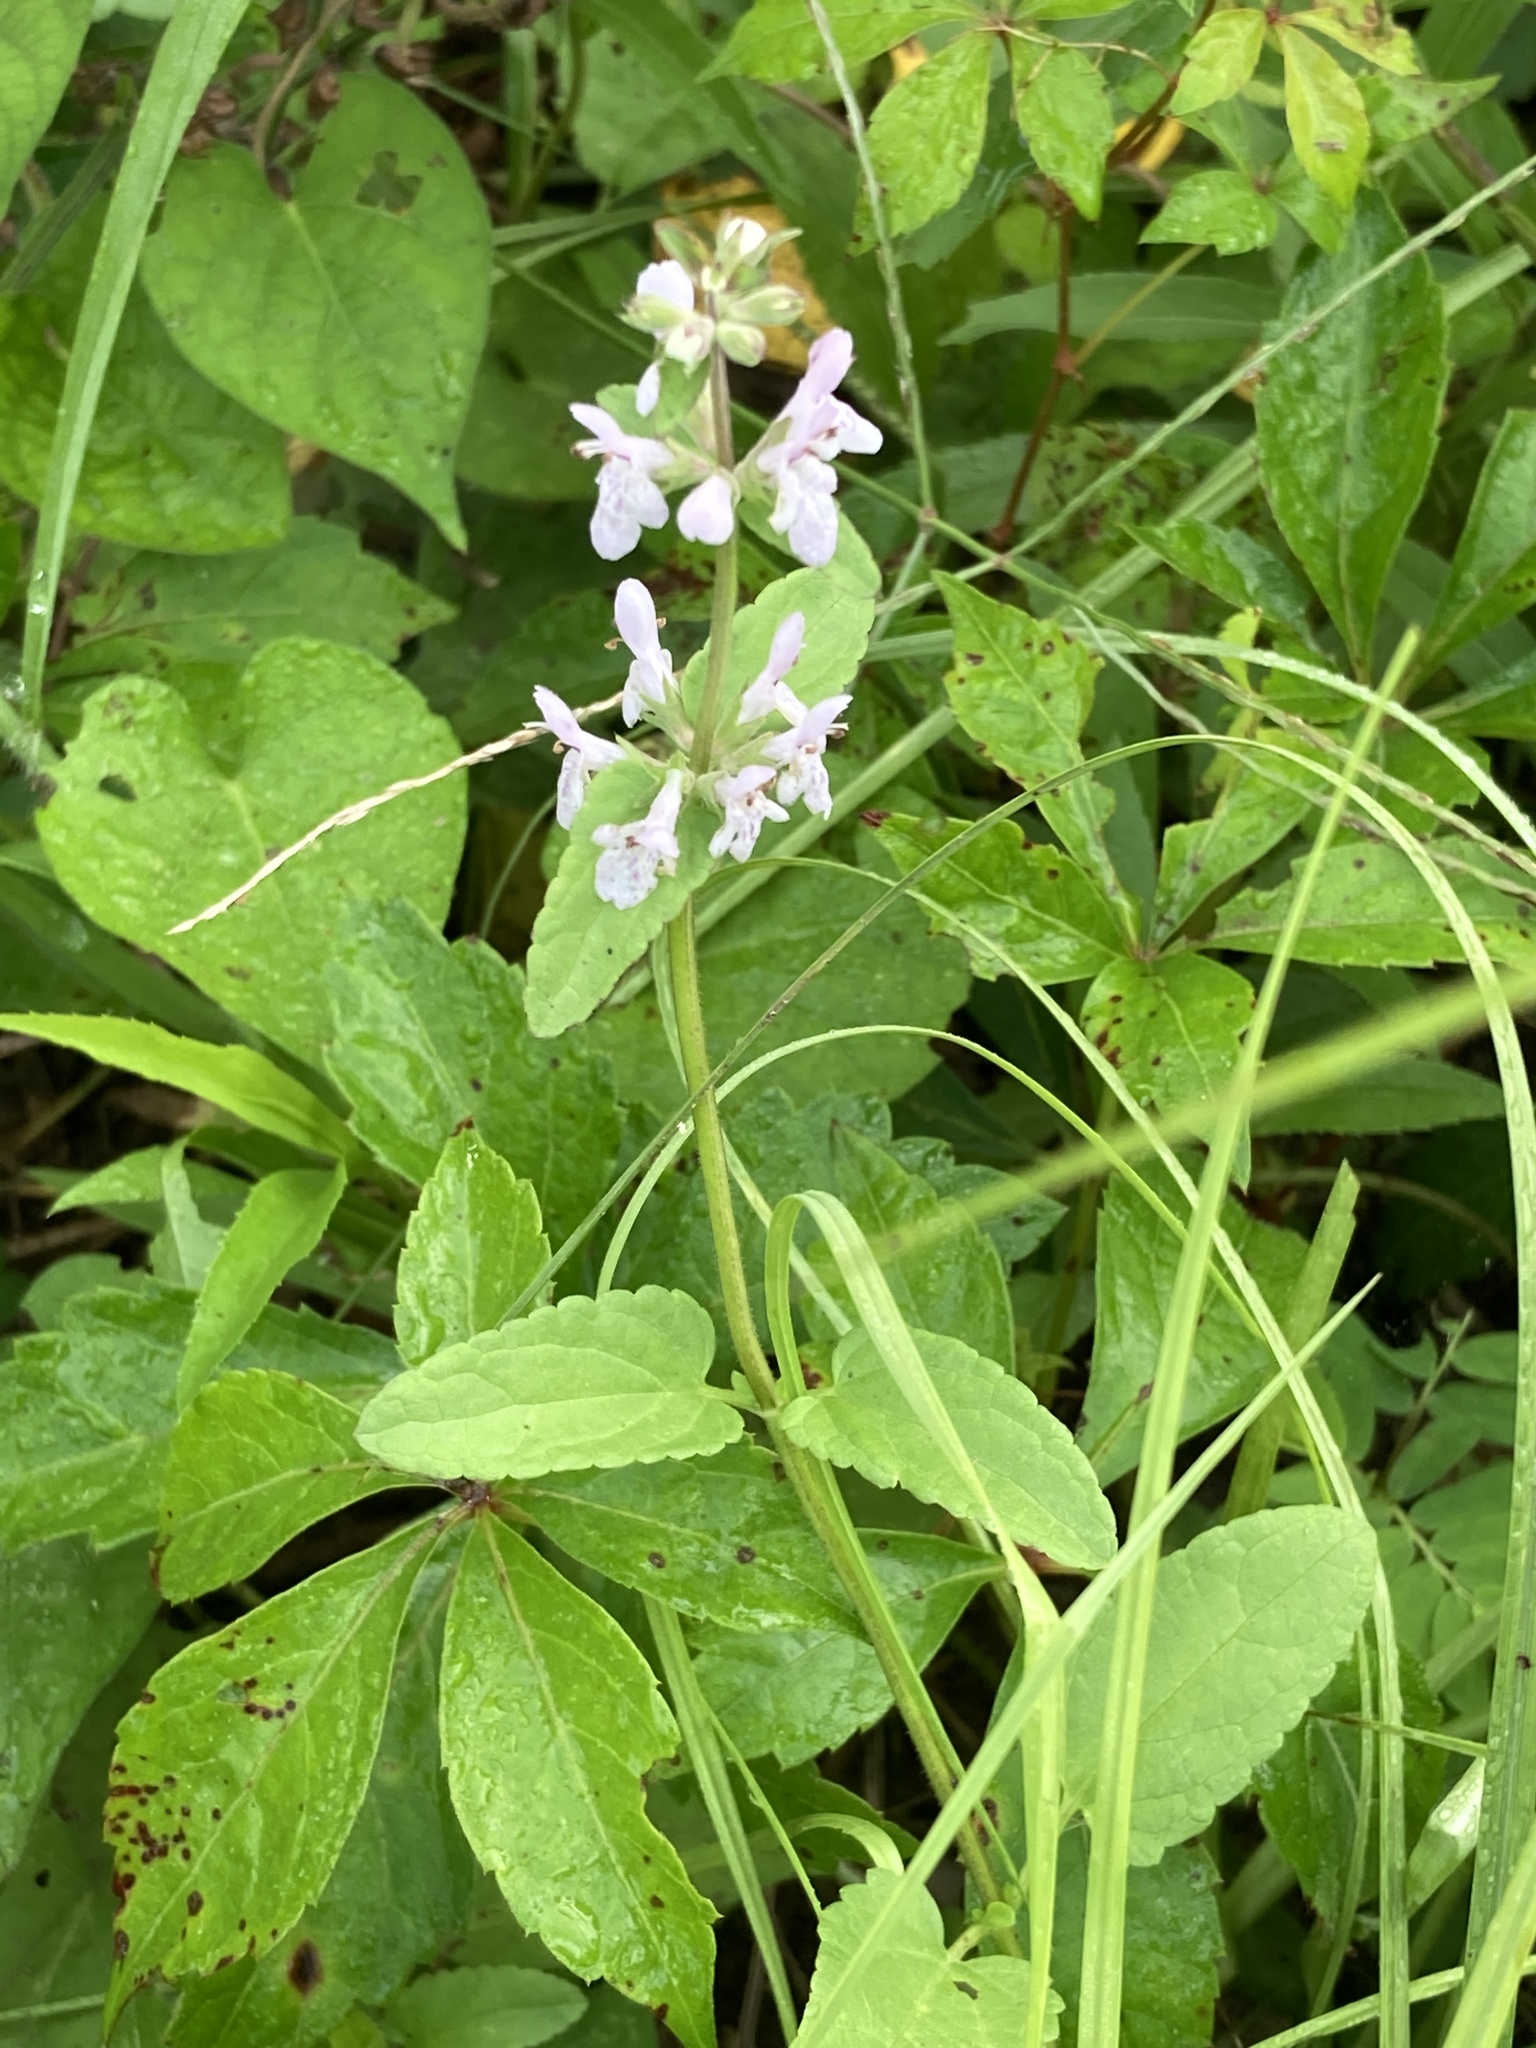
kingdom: Plantae
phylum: Tracheophyta
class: Magnoliopsida
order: Lamiales
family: Lamiaceae
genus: Stachys
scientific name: Stachys floridana
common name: Florida betony
